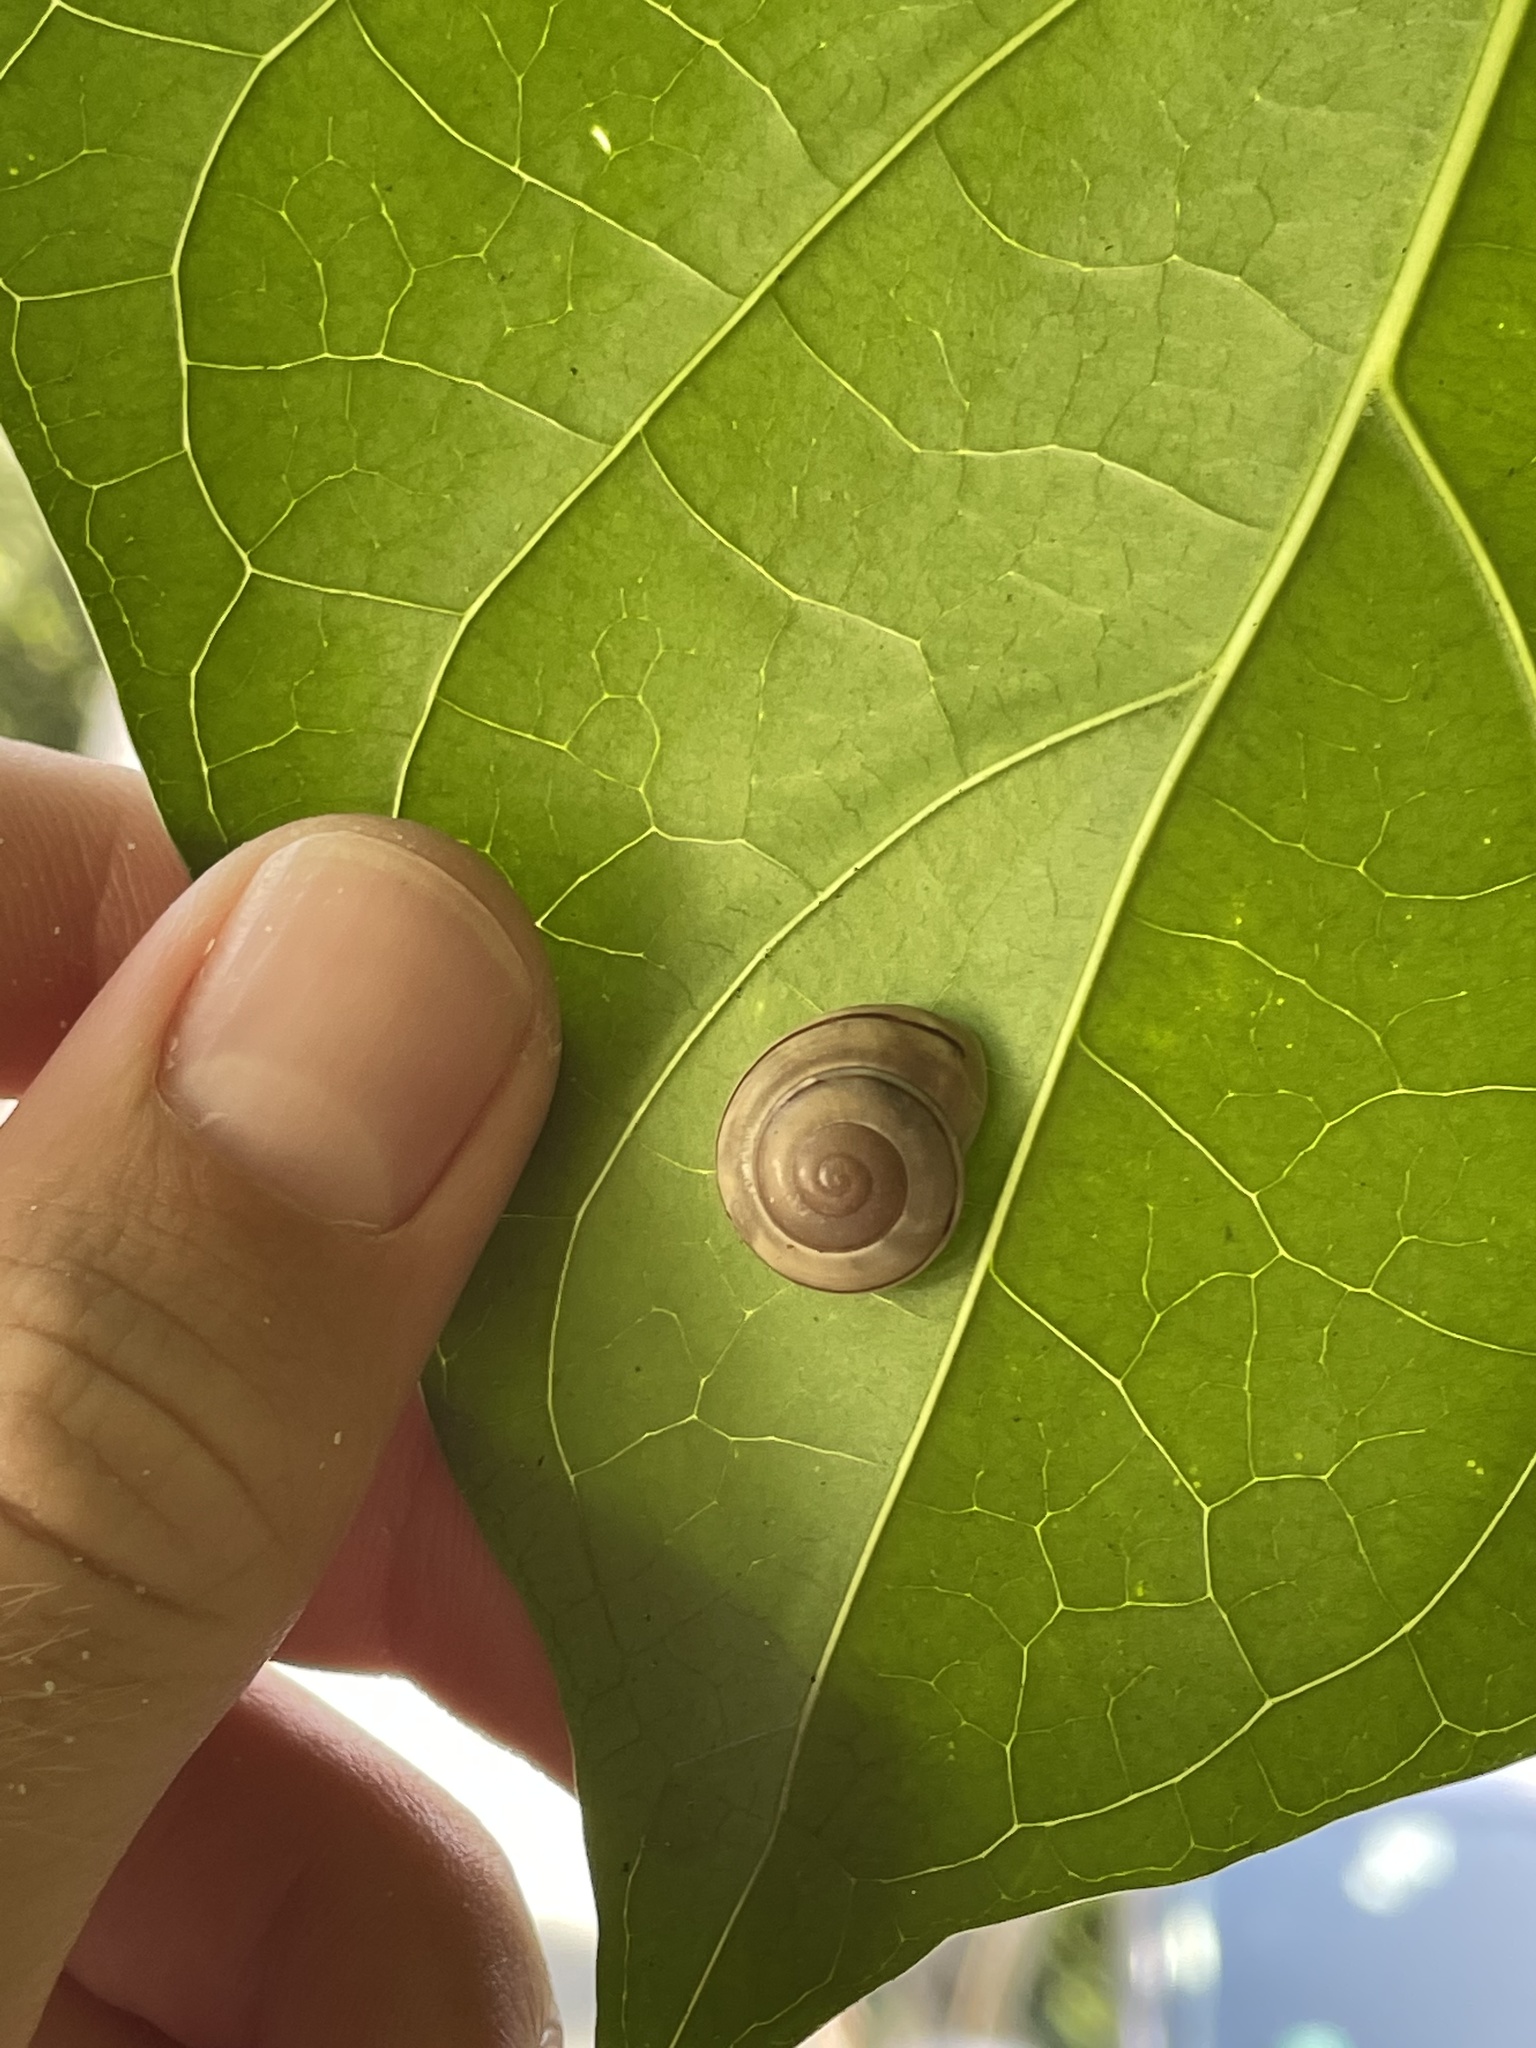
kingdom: Animalia
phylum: Mollusca
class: Gastropoda
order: Stylommatophora
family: Cepolidae
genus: Levicepolis
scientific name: Levicepolis nemoralina
